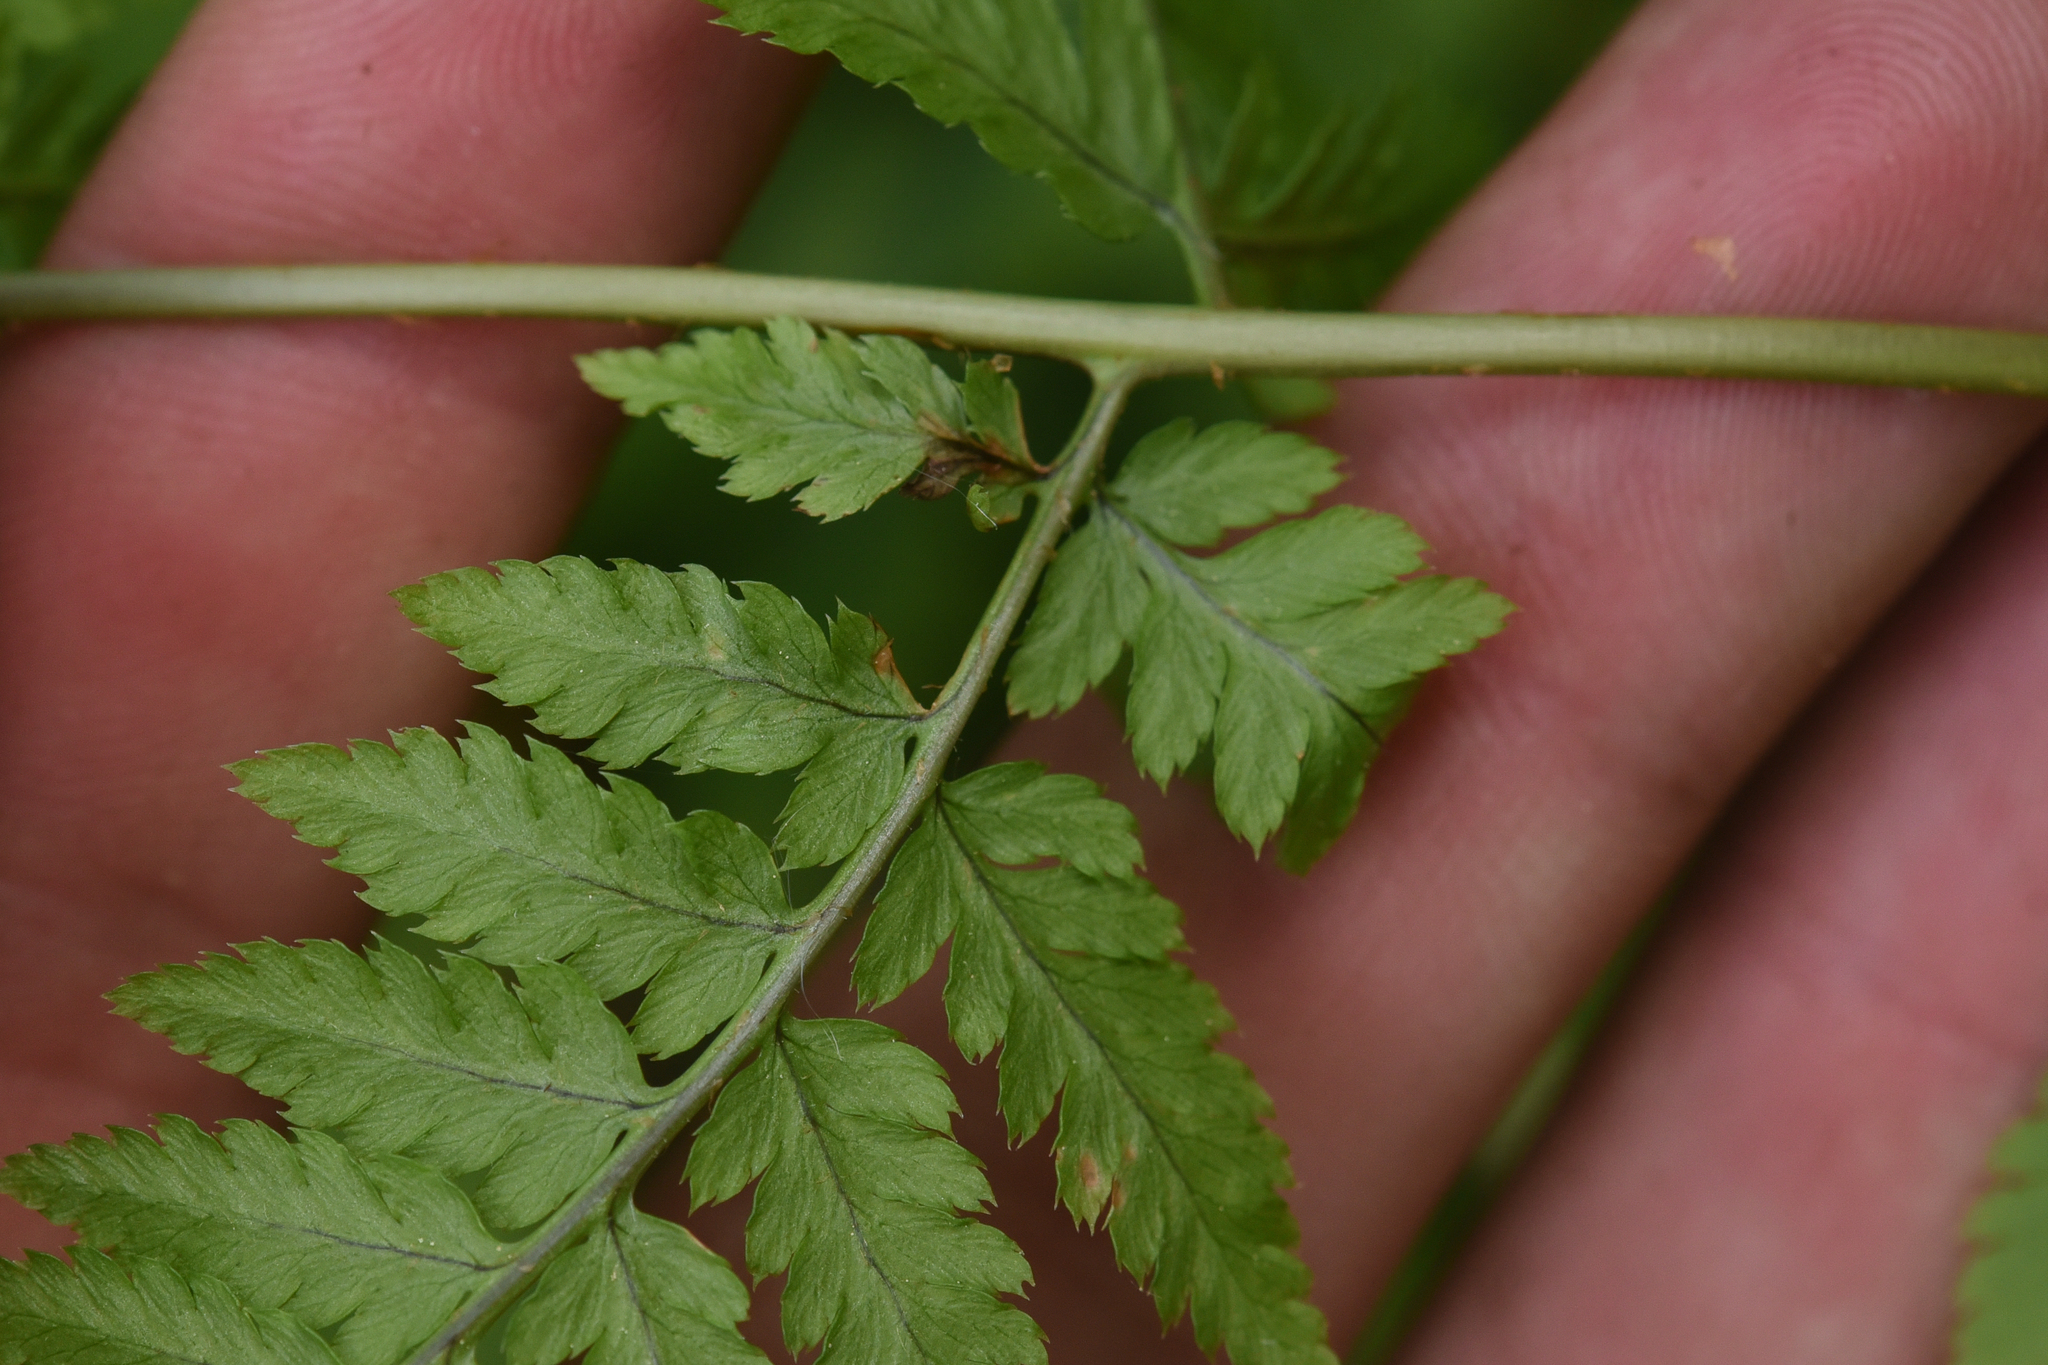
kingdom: Plantae
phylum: Tracheophyta
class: Polypodiopsida
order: Polypodiales
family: Dryopteridaceae
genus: Dryopteris
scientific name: Dryopteris carthusiana
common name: Narrow buckler-fern
